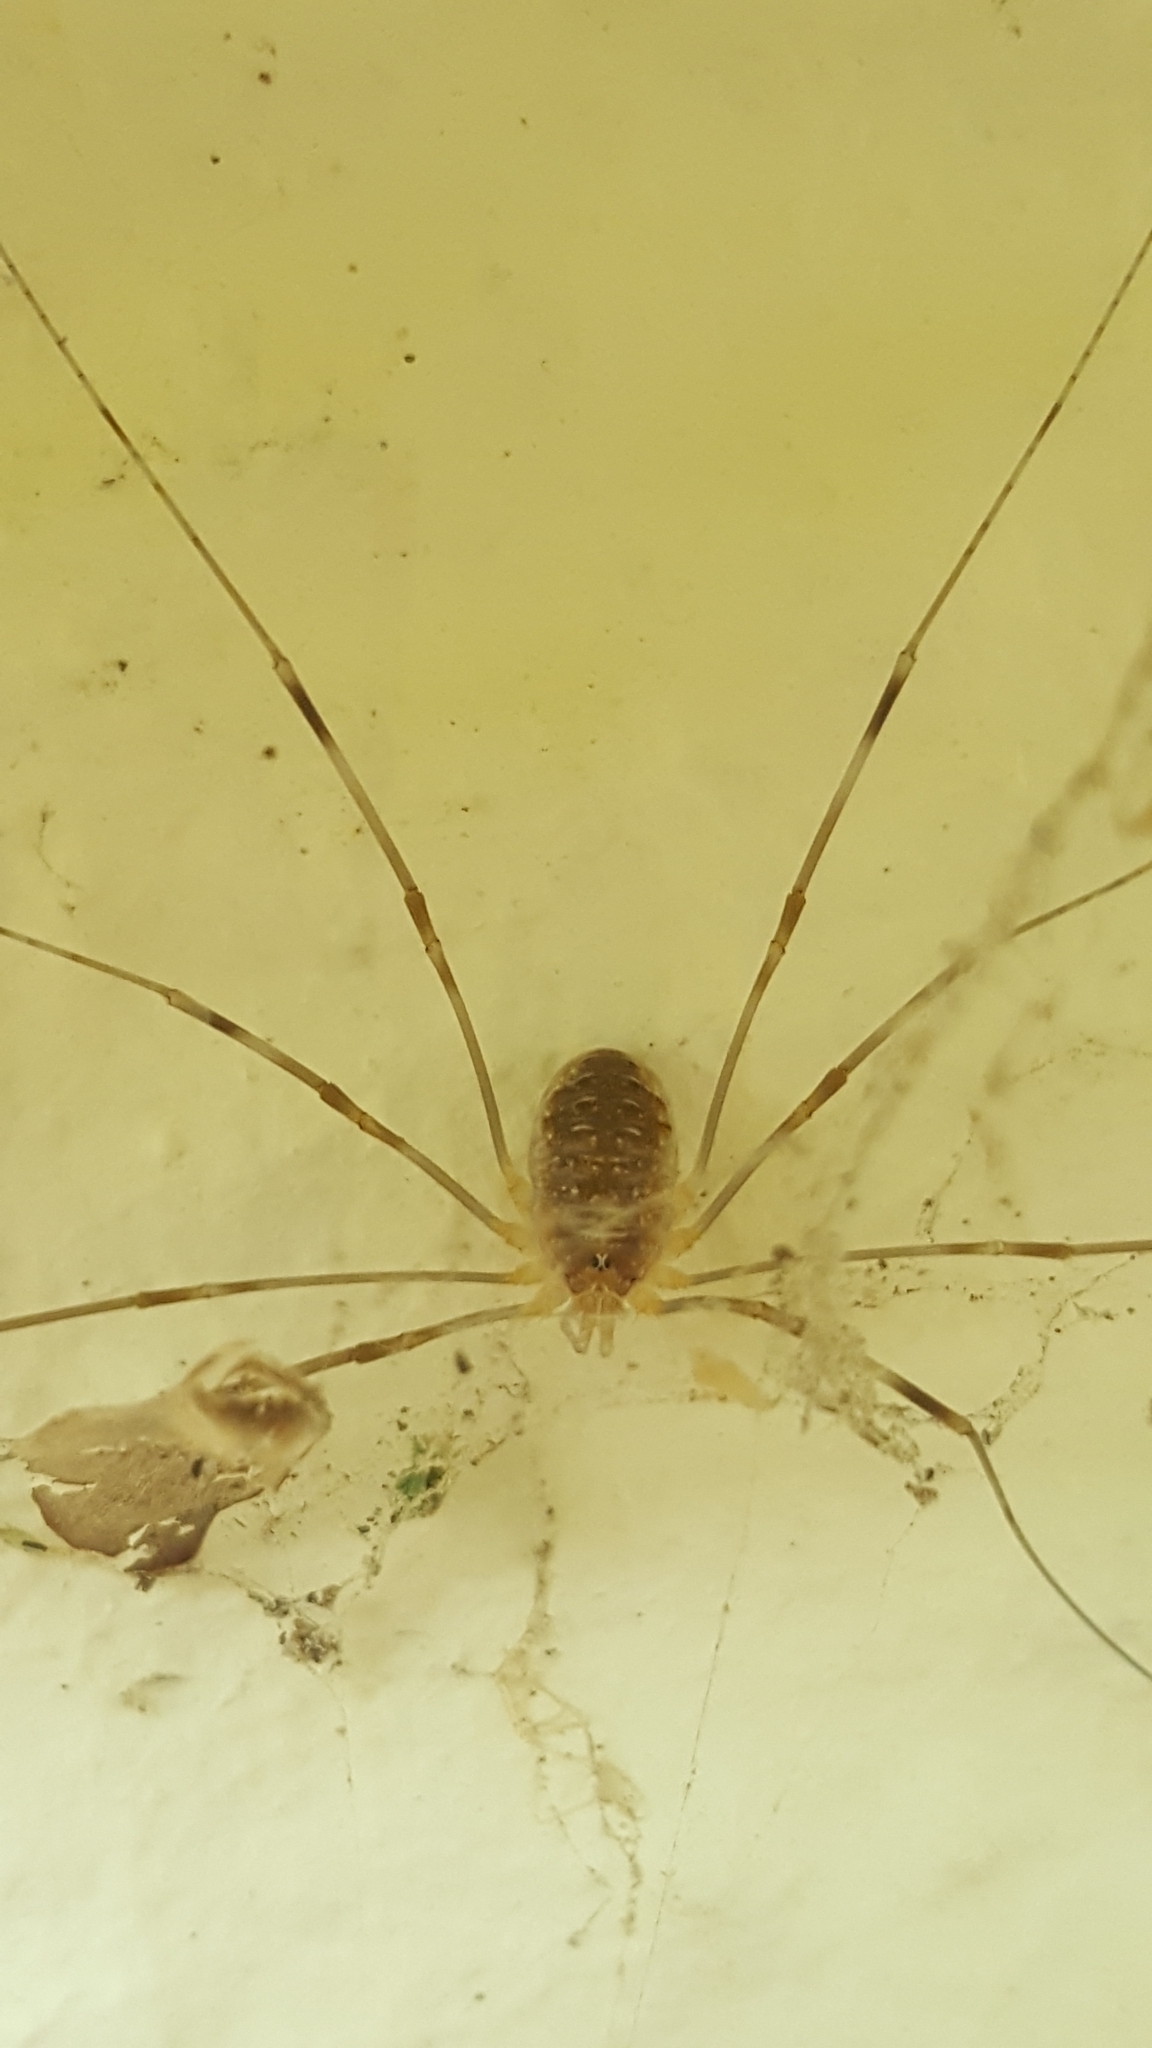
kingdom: Animalia
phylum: Arthropoda
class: Arachnida
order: Opiliones
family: Phalangiidae
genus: Opilio
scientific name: Opilio canestrinii
